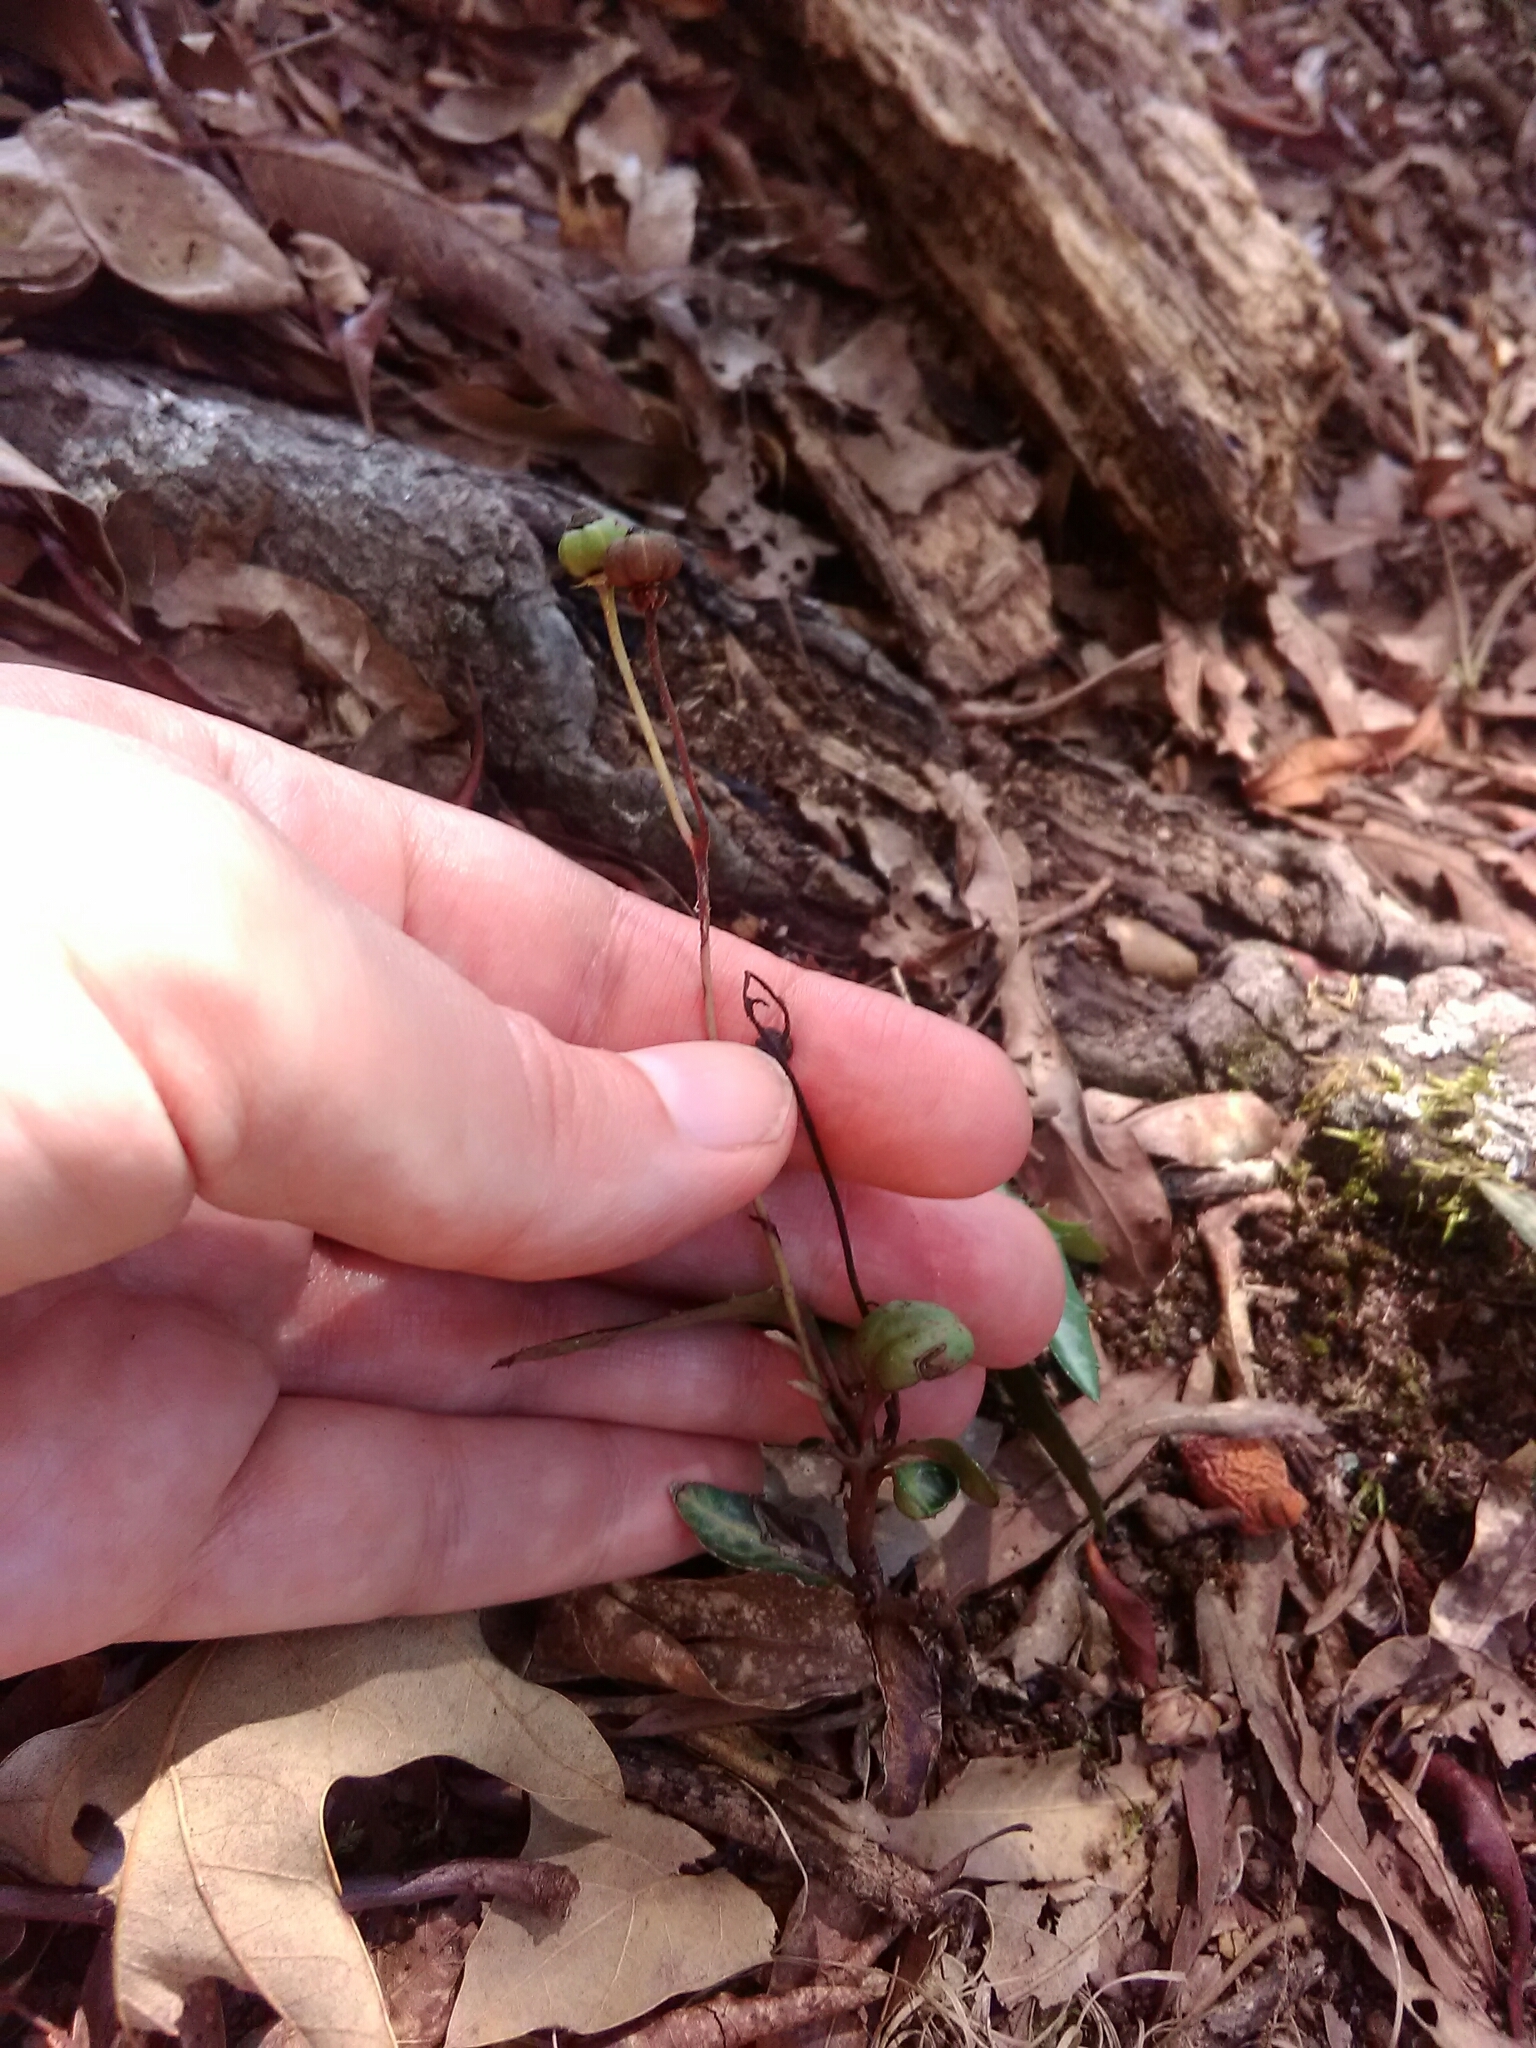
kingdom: Plantae
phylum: Tracheophyta
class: Magnoliopsida
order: Ericales
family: Ericaceae
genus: Chimaphila
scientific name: Chimaphila maculata
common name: Spotted pipsissewa
